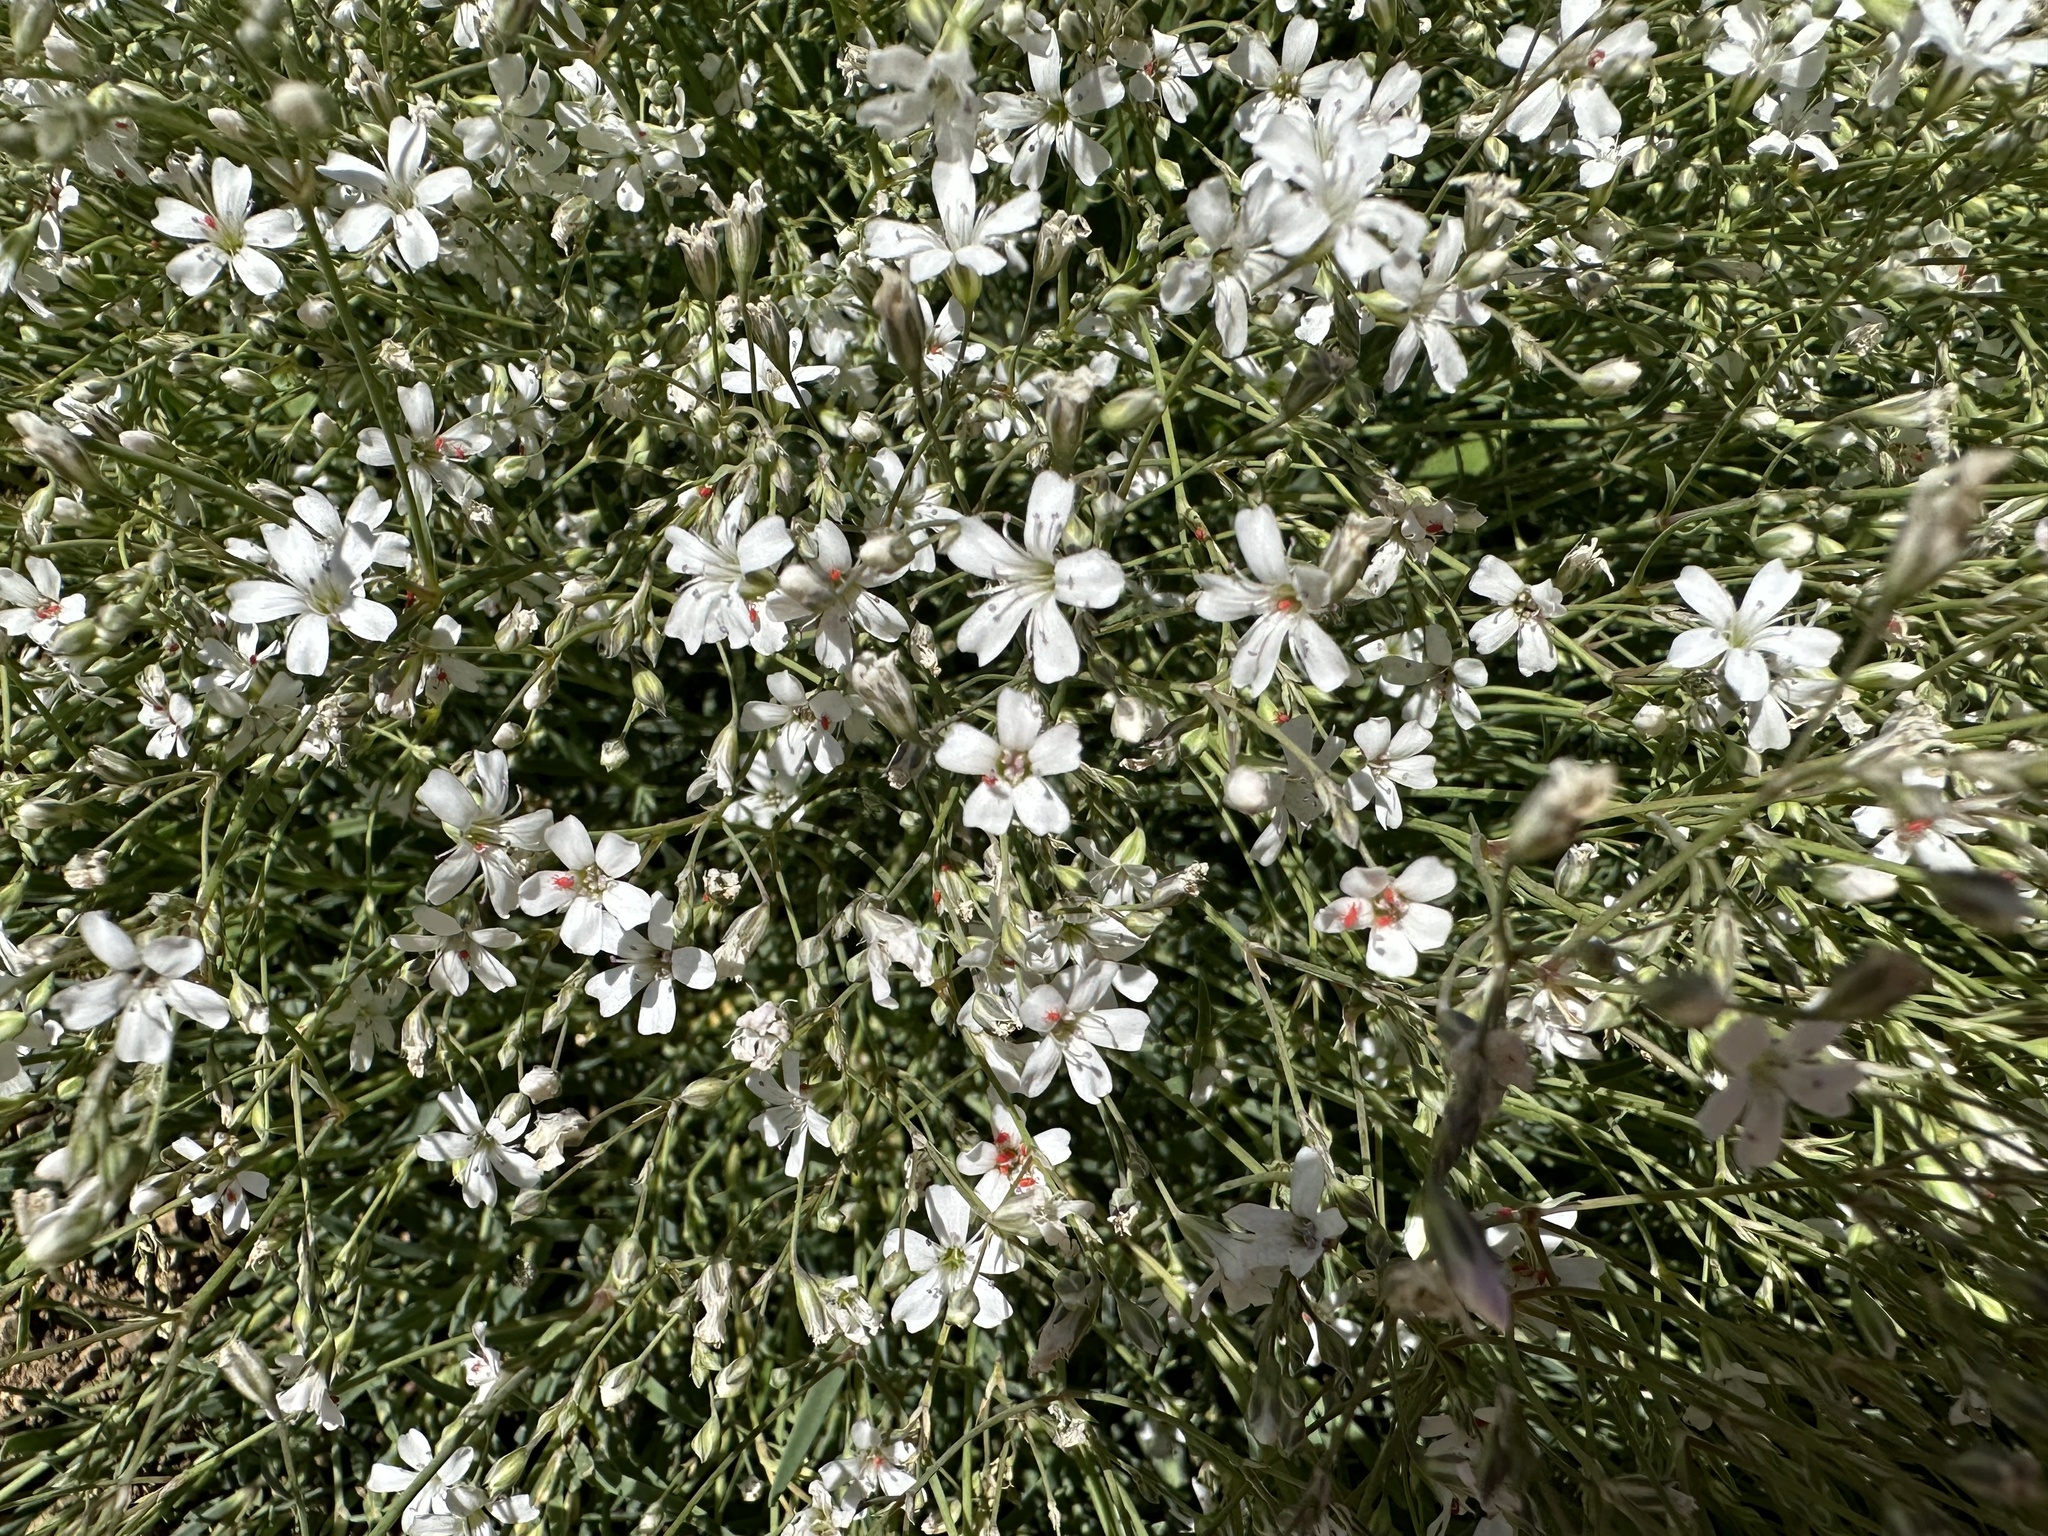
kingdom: Plantae
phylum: Tracheophyta
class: Magnoliopsida
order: Caryophyllales
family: Caryophyllaceae
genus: Gypsophila
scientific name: Gypsophila repens
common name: Creeping baby's-breath
